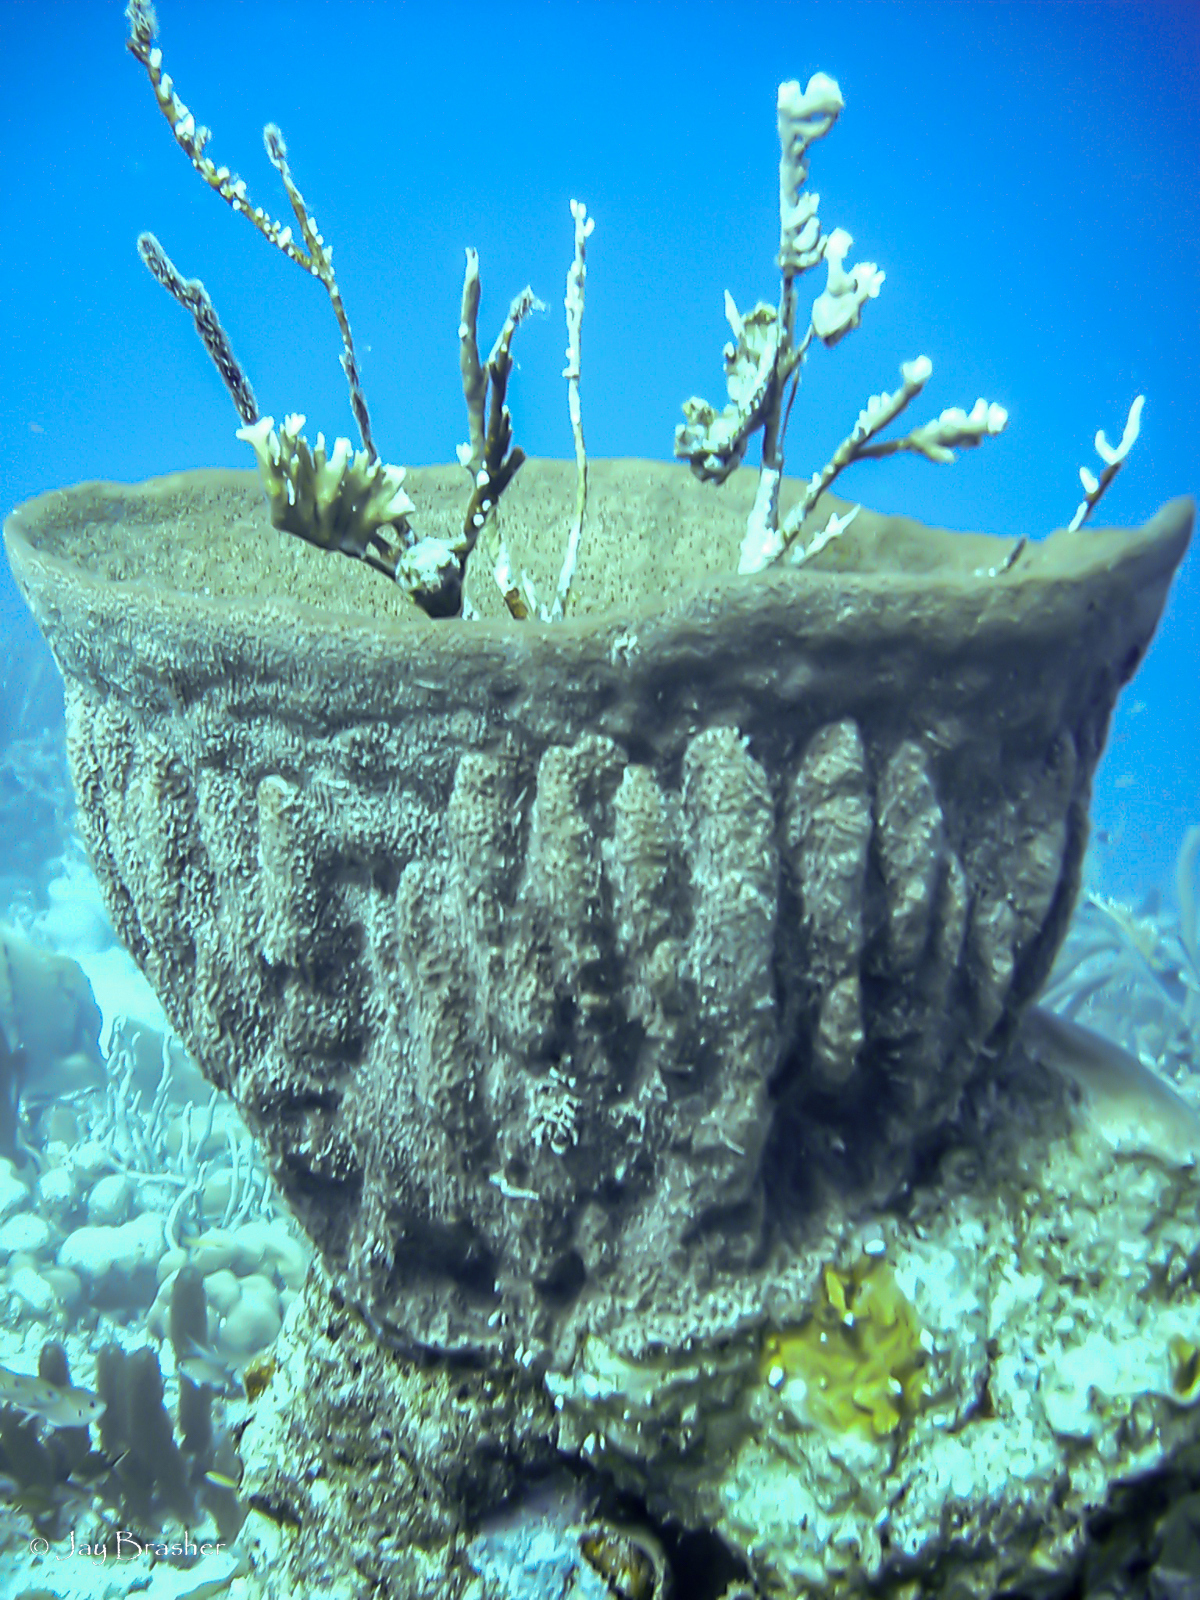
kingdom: Animalia
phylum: Porifera
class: Demospongiae
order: Dictyoceratida
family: Irciniidae
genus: Ircinia
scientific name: Ircinia campana
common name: Vase sponge
